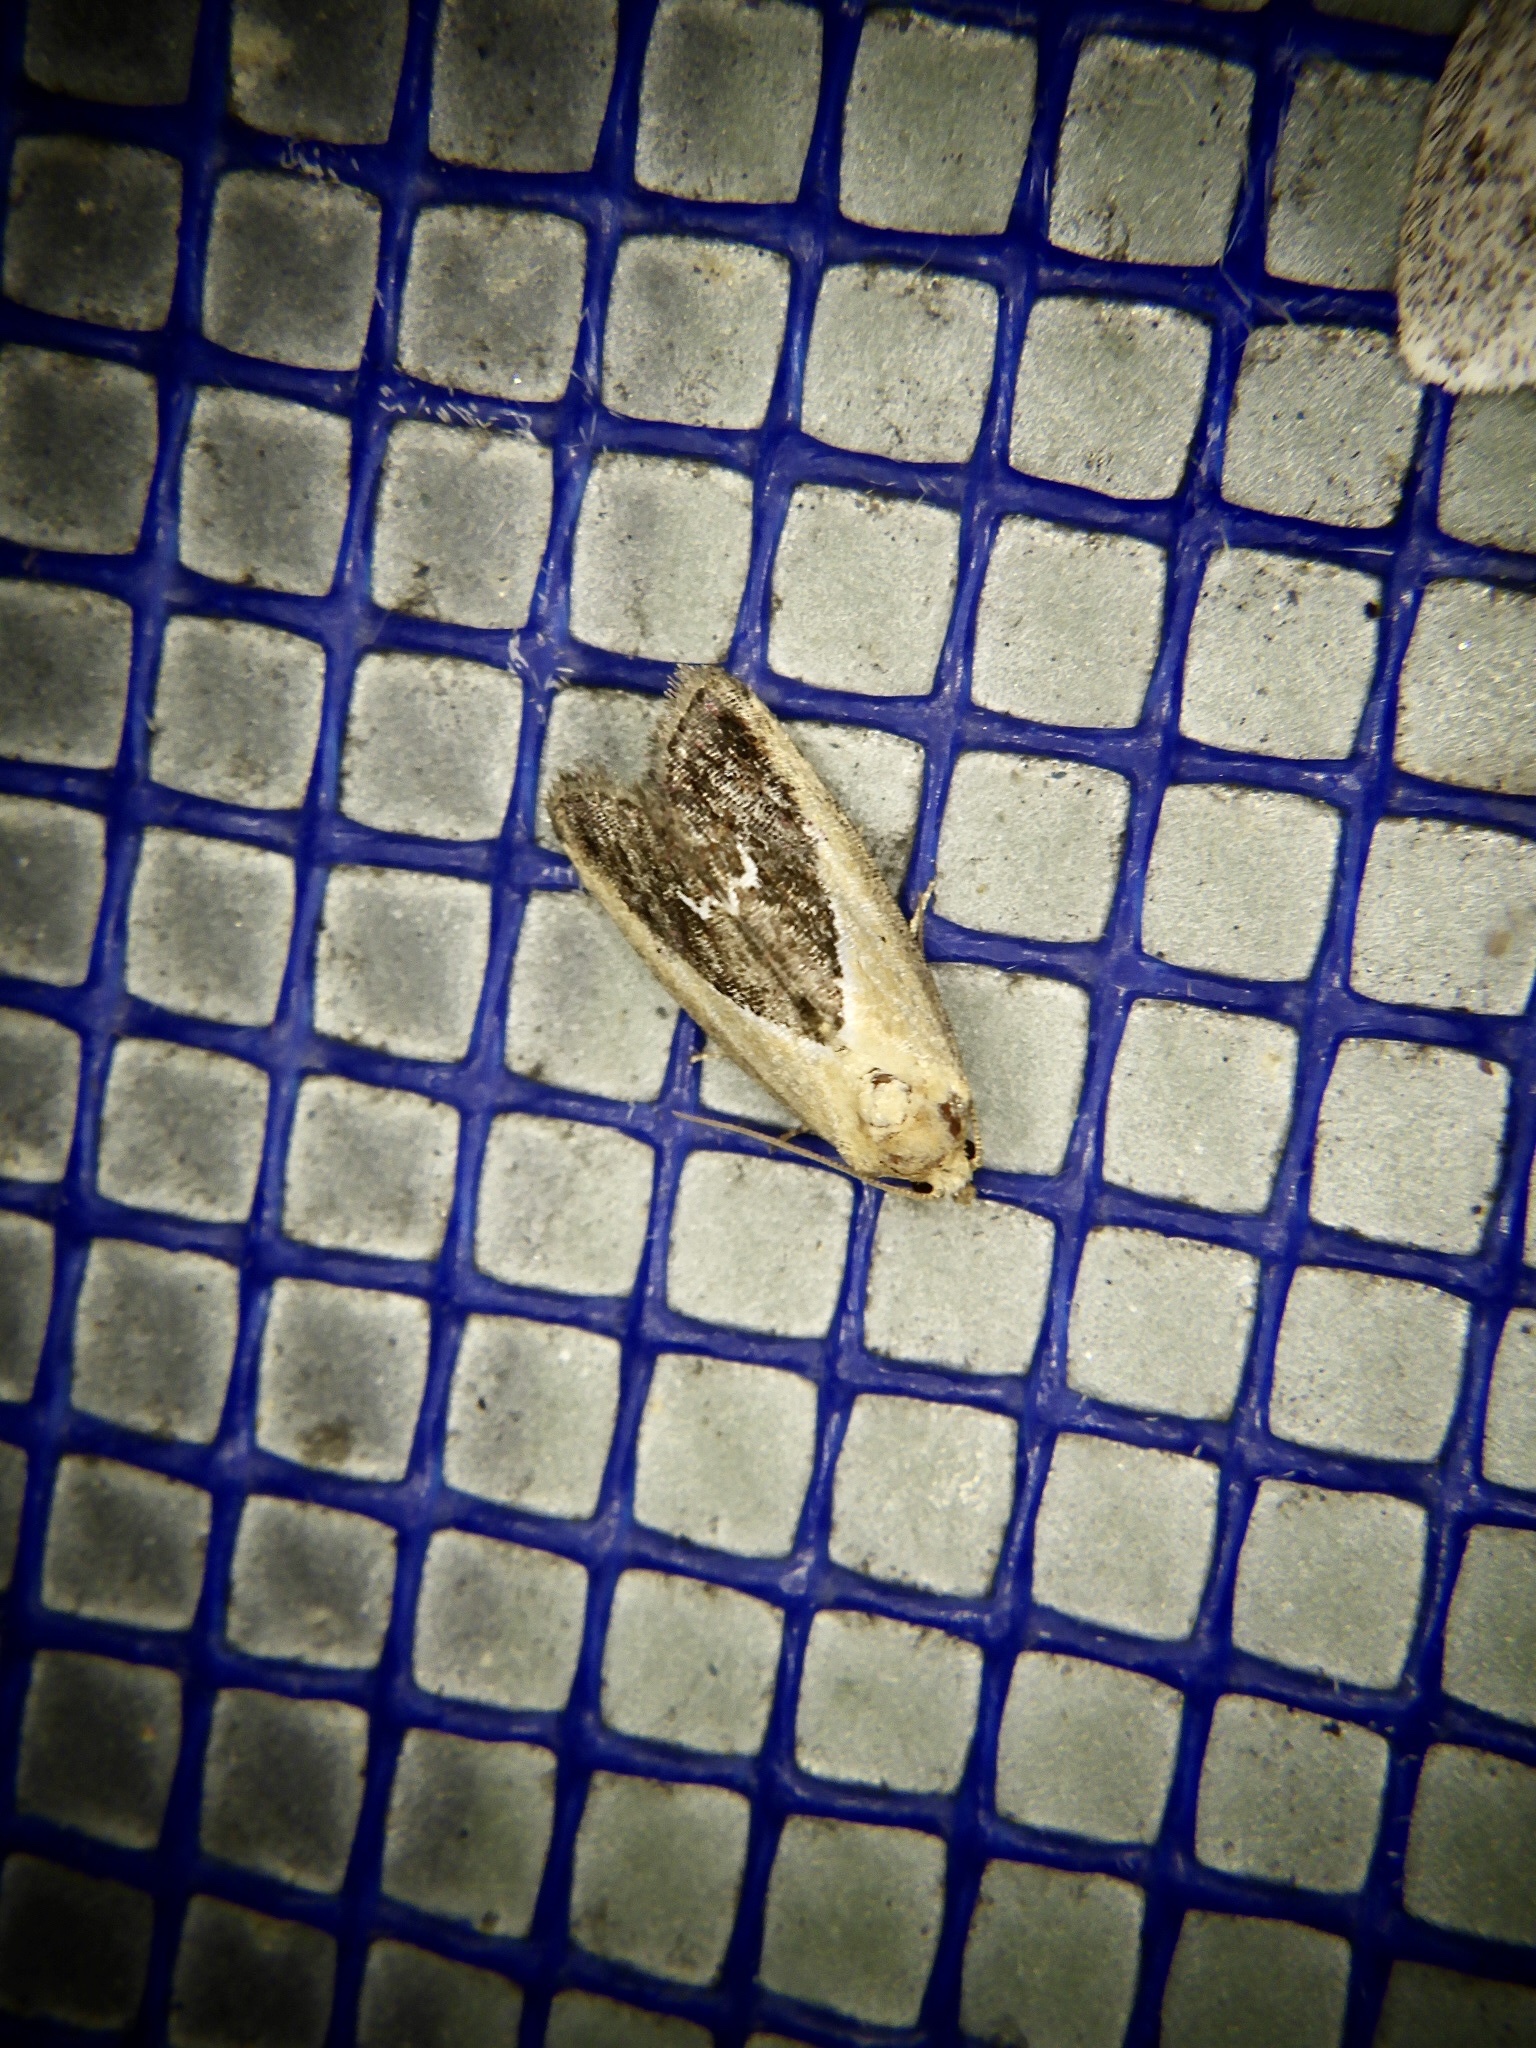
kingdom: Animalia
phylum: Arthropoda
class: Insecta
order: Lepidoptera
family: Noctuidae
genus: Maliattha
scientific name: Maliattha
